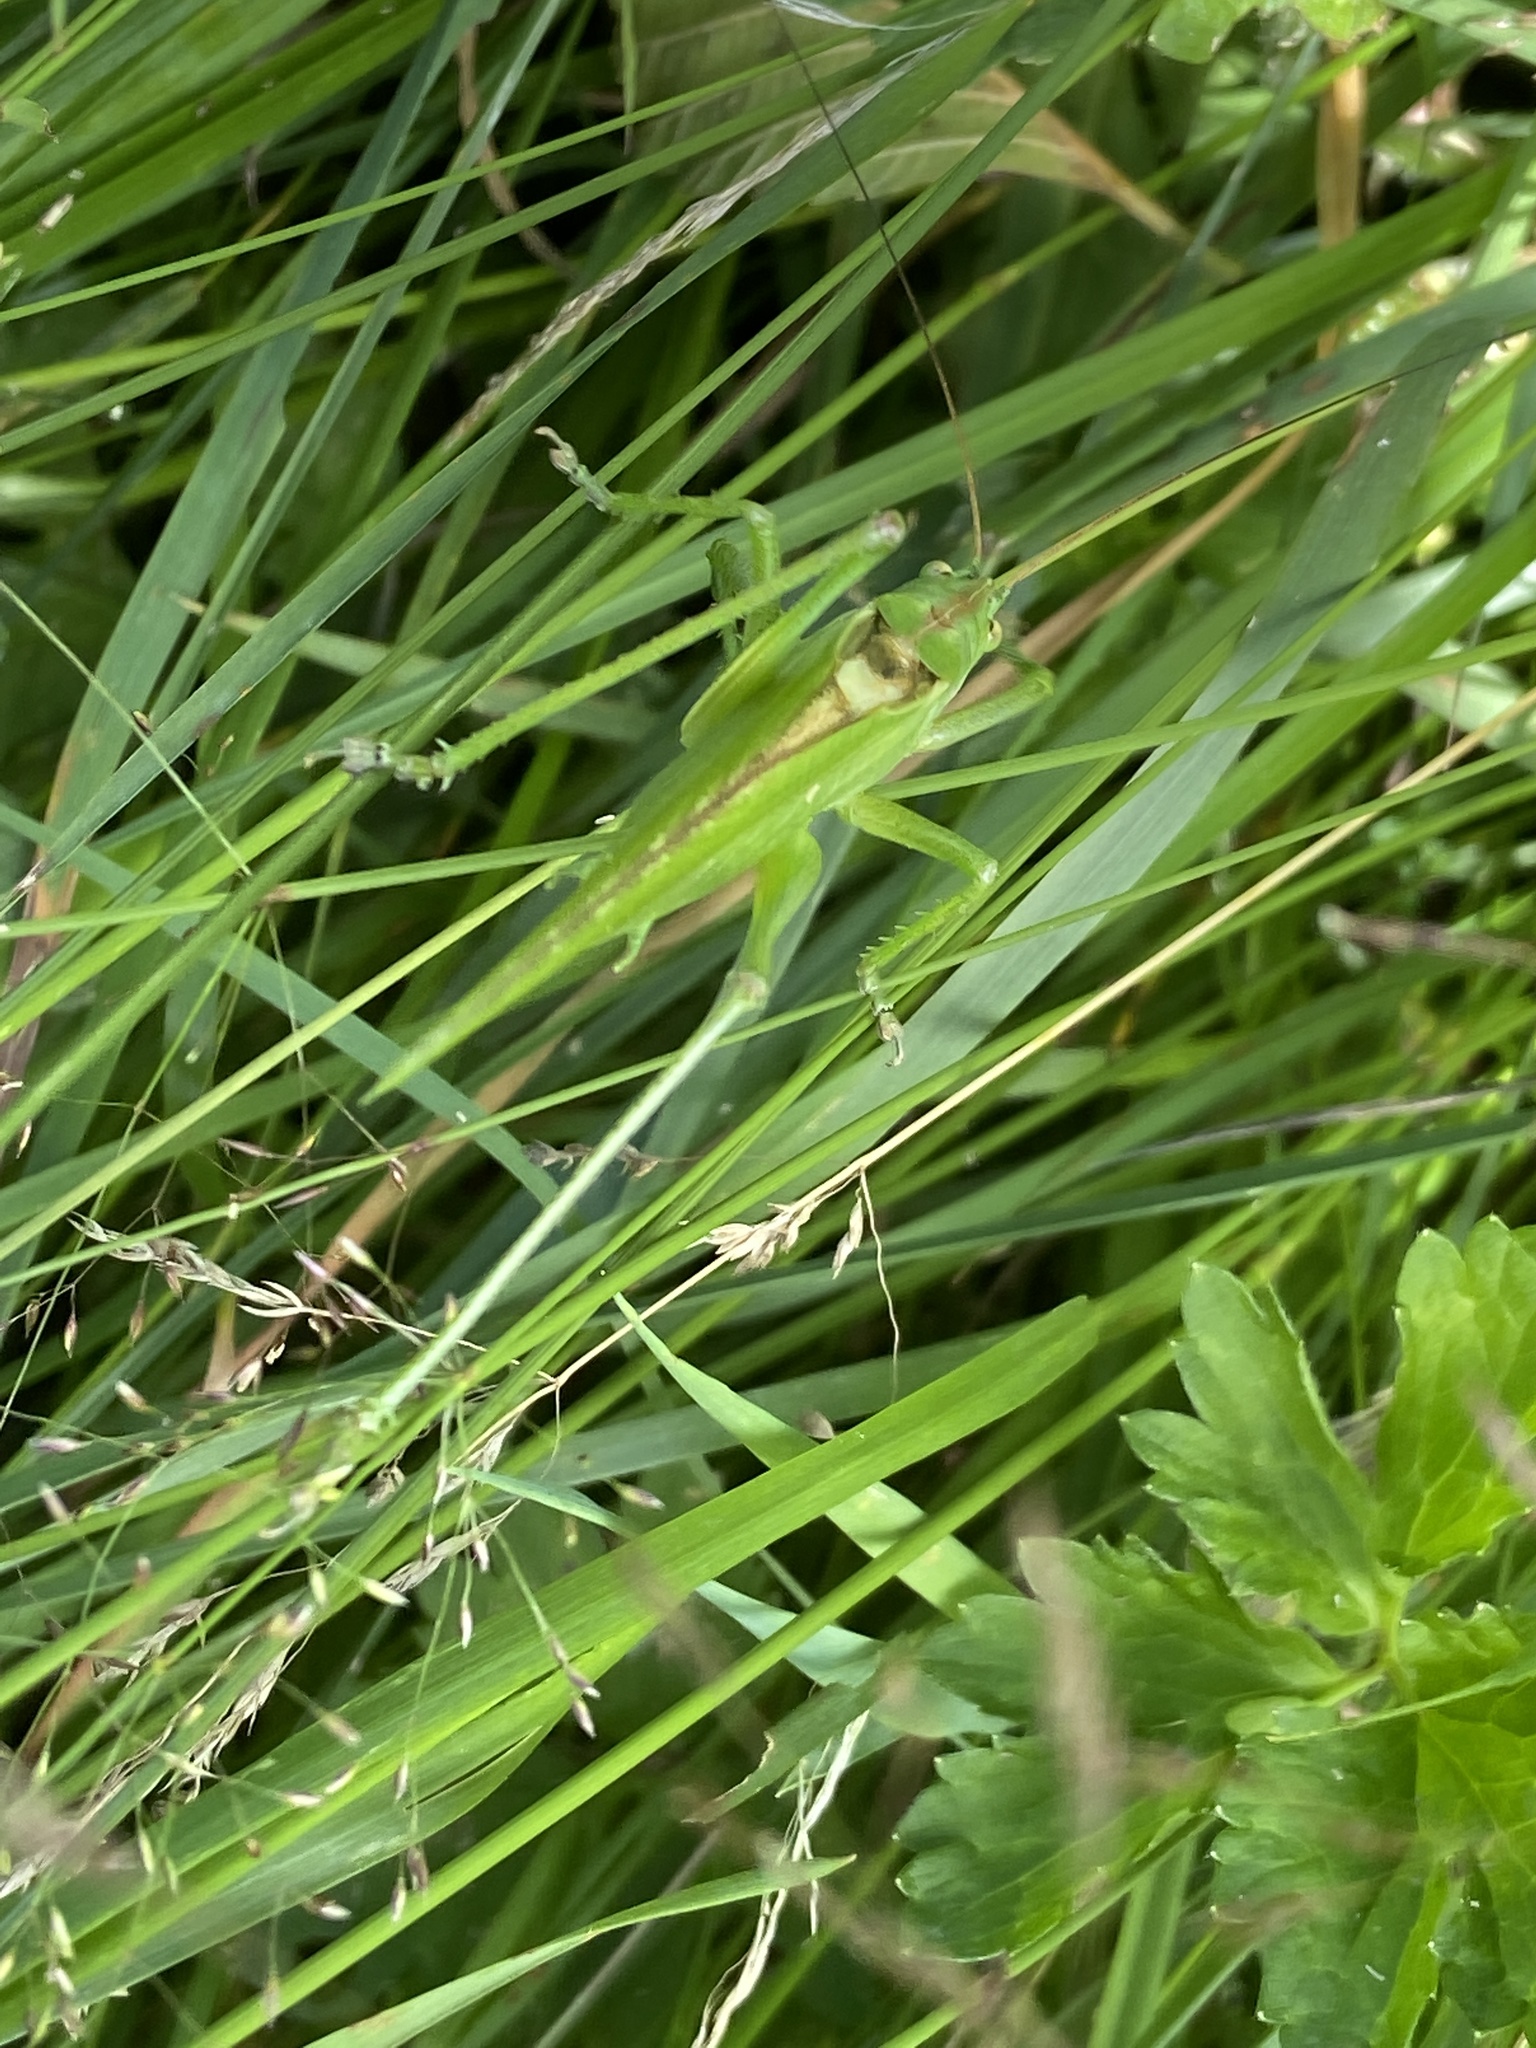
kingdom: Animalia
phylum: Arthropoda
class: Insecta
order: Orthoptera
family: Tettigoniidae
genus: Tettigonia
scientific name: Tettigonia viridissima
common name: Great green bush-cricket
